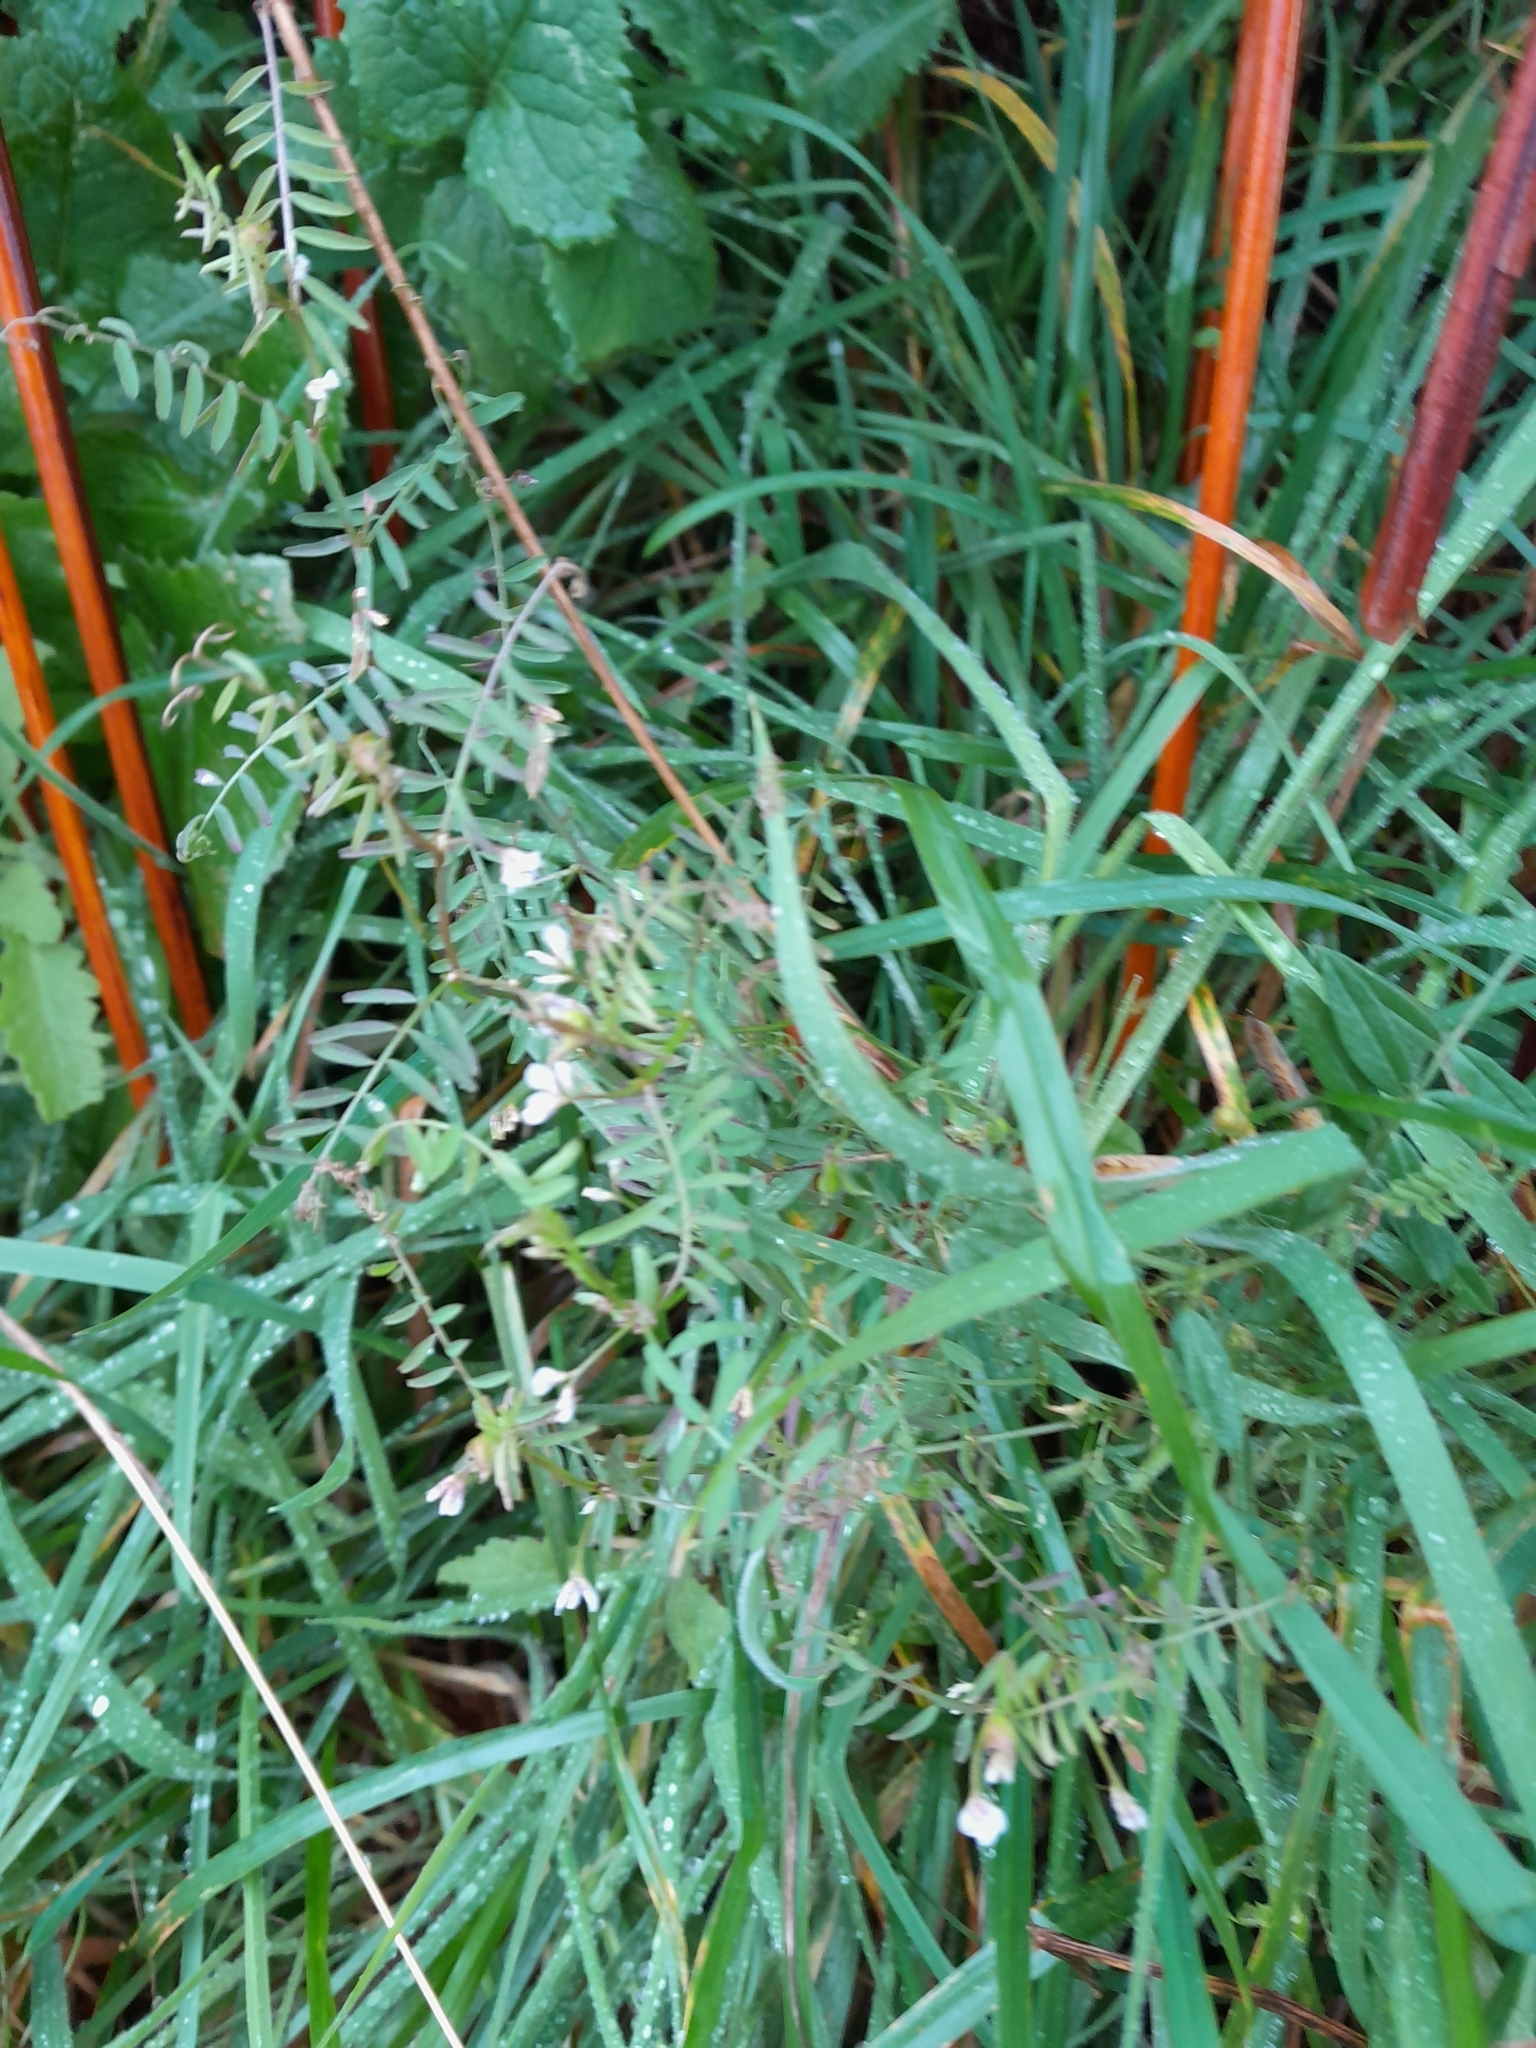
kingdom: Plantae
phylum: Tracheophyta
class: Magnoliopsida
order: Fabales
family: Fabaceae
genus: Vicia
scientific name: Vicia hirsuta
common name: Tiny vetch
